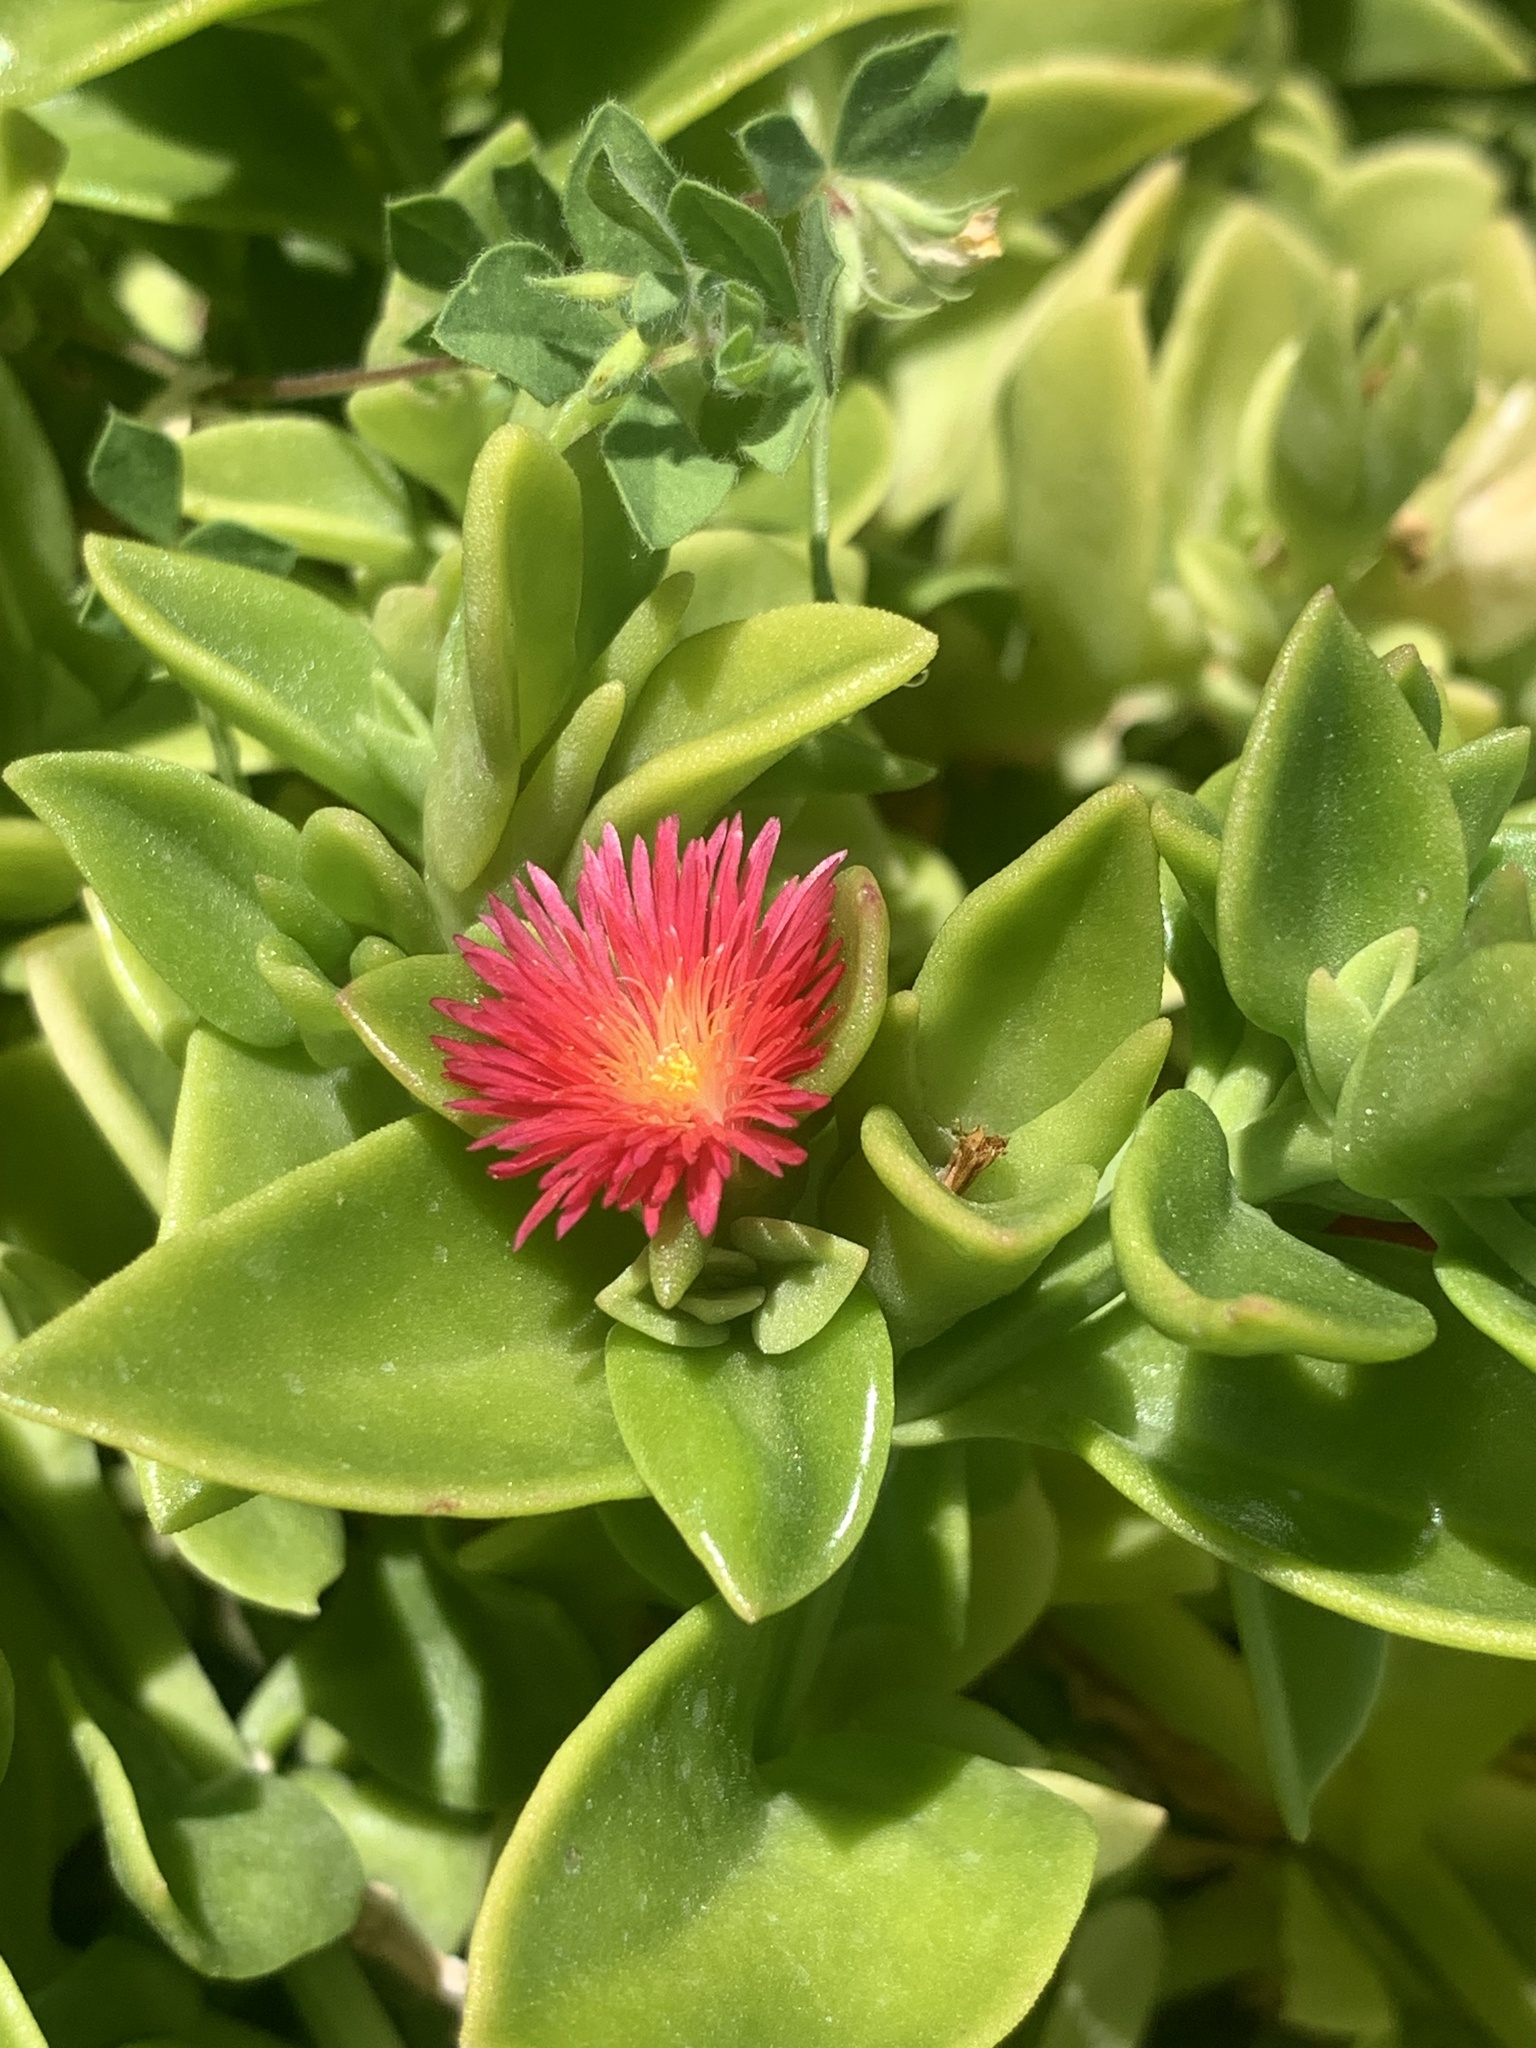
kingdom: Plantae
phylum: Tracheophyta
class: Magnoliopsida
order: Caryophyllales
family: Aizoaceae
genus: Mesembryanthemum
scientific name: Mesembryanthemum cordifolium
